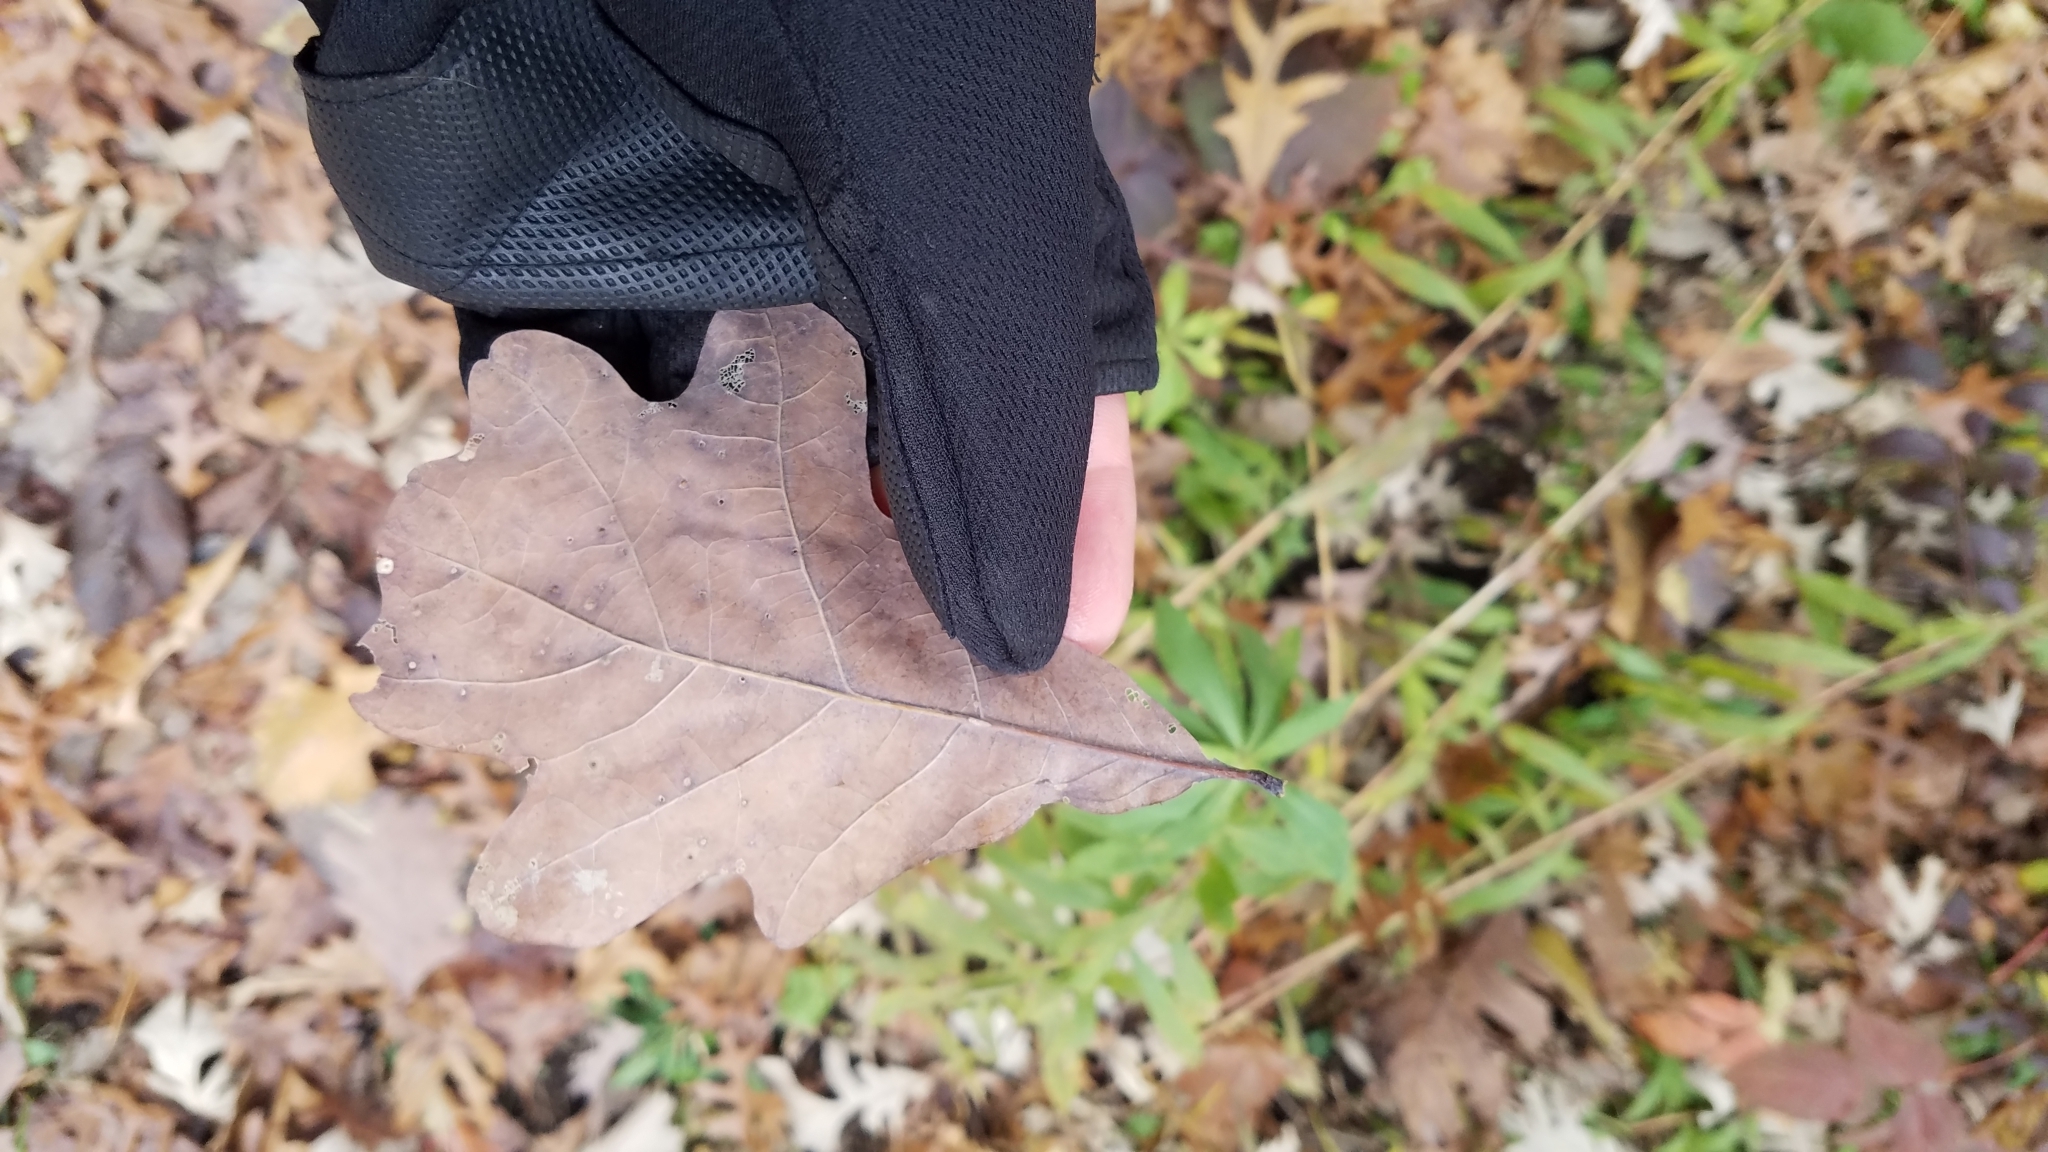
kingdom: Plantae
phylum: Tracheophyta
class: Magnoliopsida
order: Fagales
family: Fagaceae
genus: Quercus
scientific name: Quercus alba
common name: White oak
